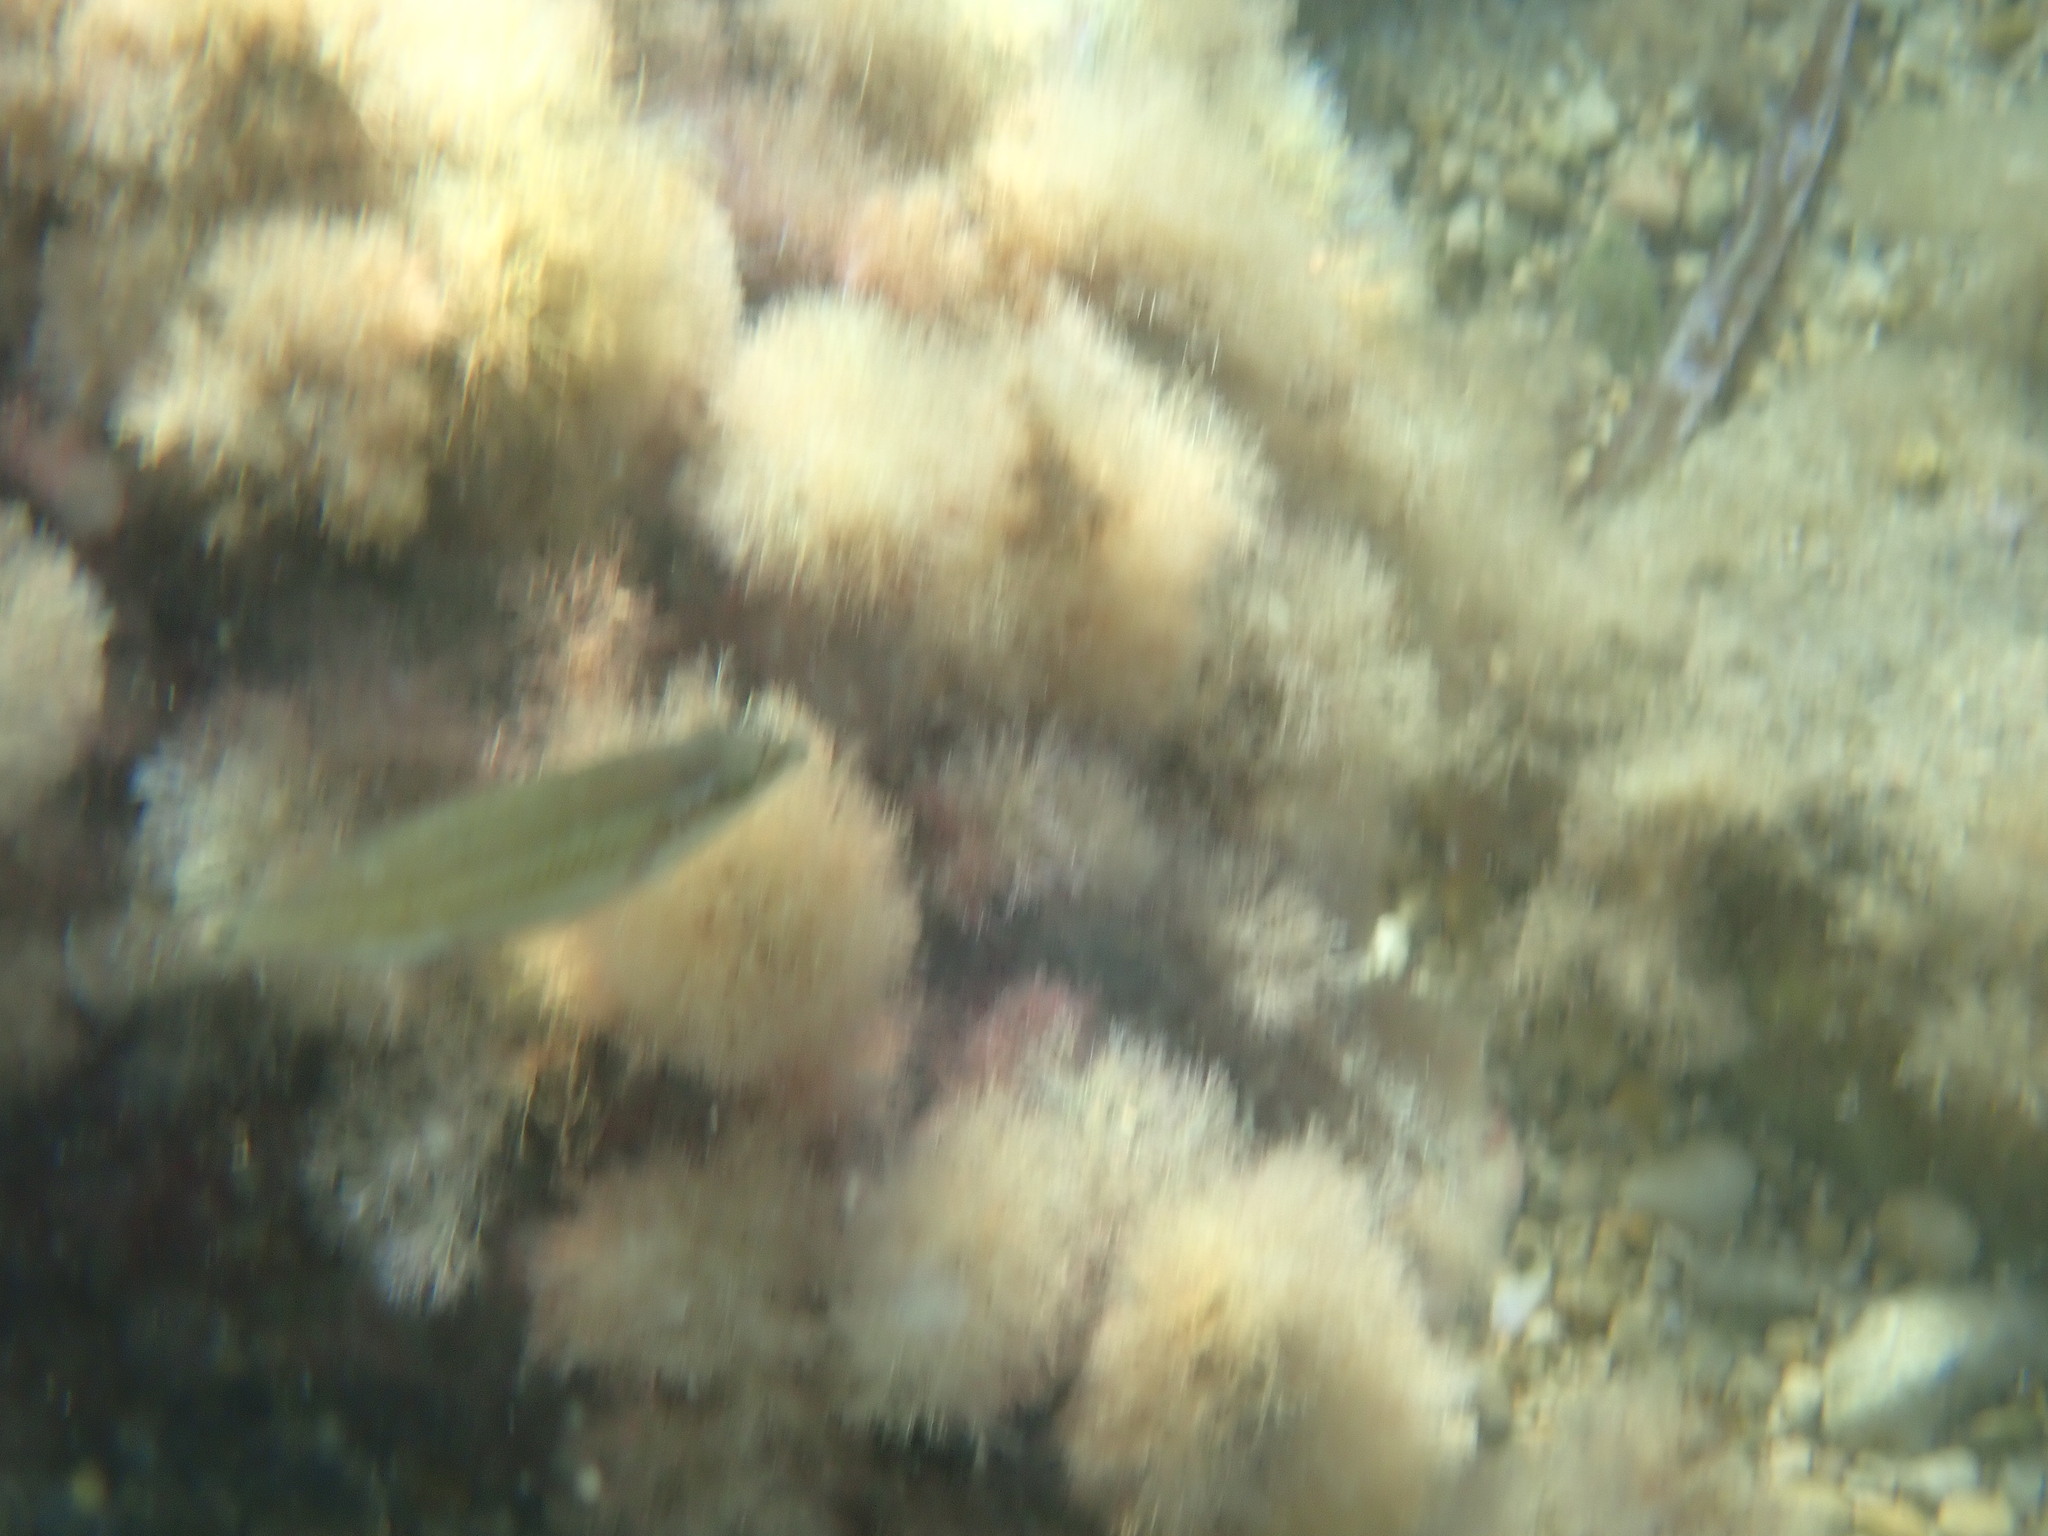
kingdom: Animalia
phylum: Chordata
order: Perciformes
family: Labridae
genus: Symphodus
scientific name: Symphodus tinca
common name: Peacock wrasse
